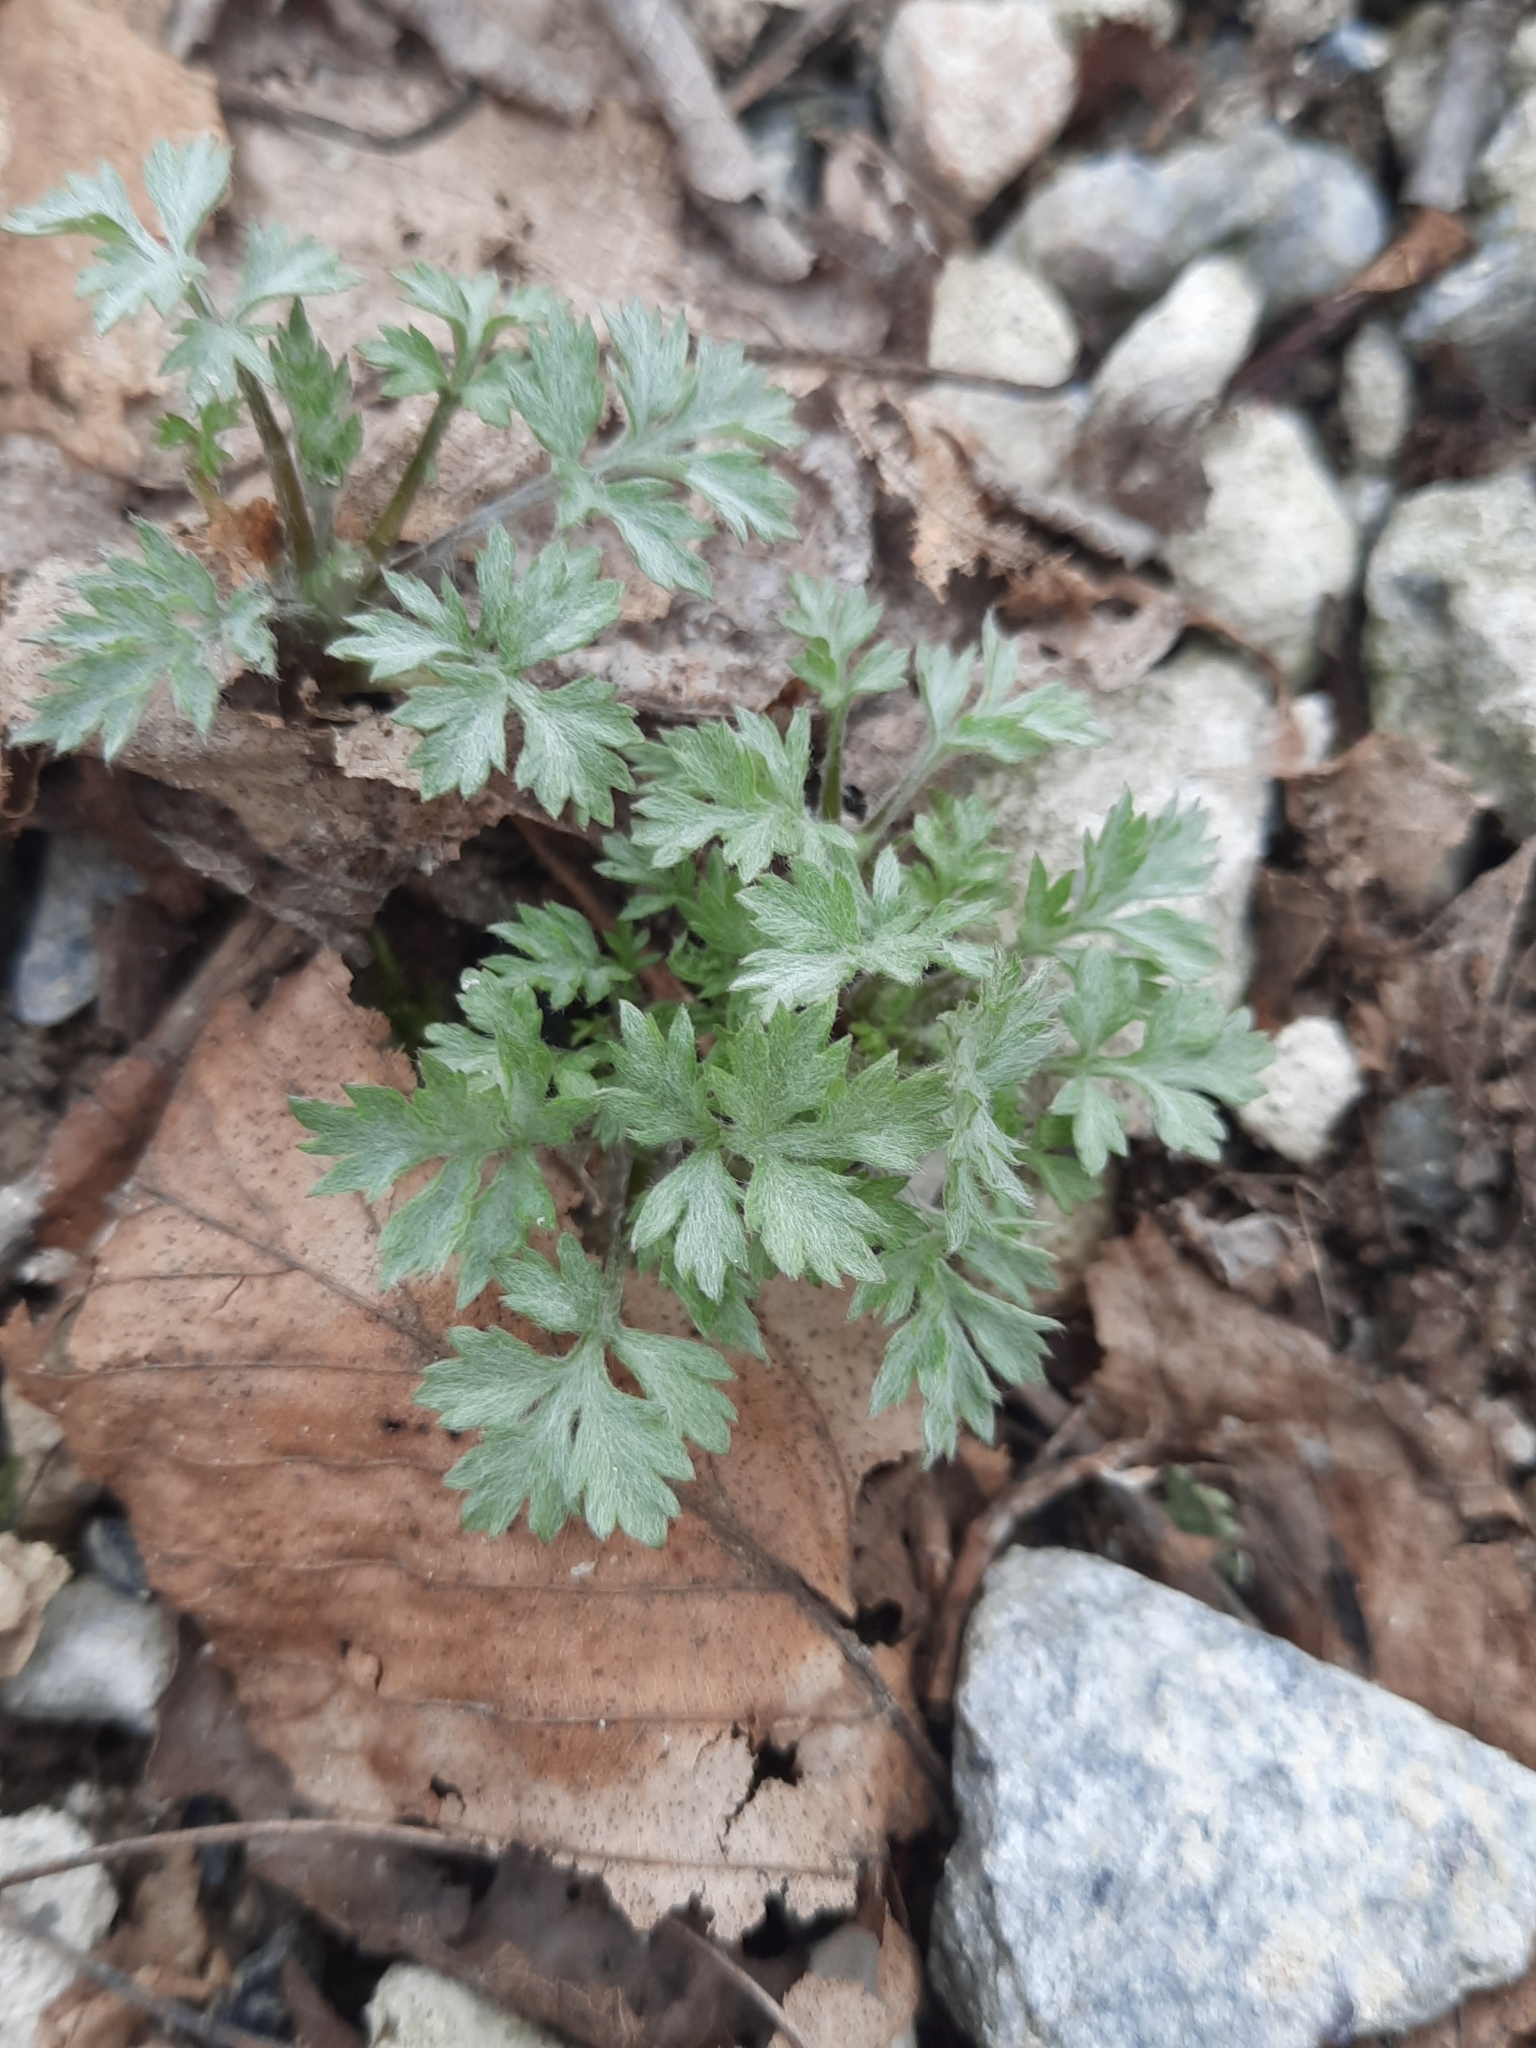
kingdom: Plantae
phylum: Tracheophyta
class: Magnoliopsida
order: Asterales
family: Asteraceae
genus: Artemisia
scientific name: Artemisia vulgaris
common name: Mugwort
